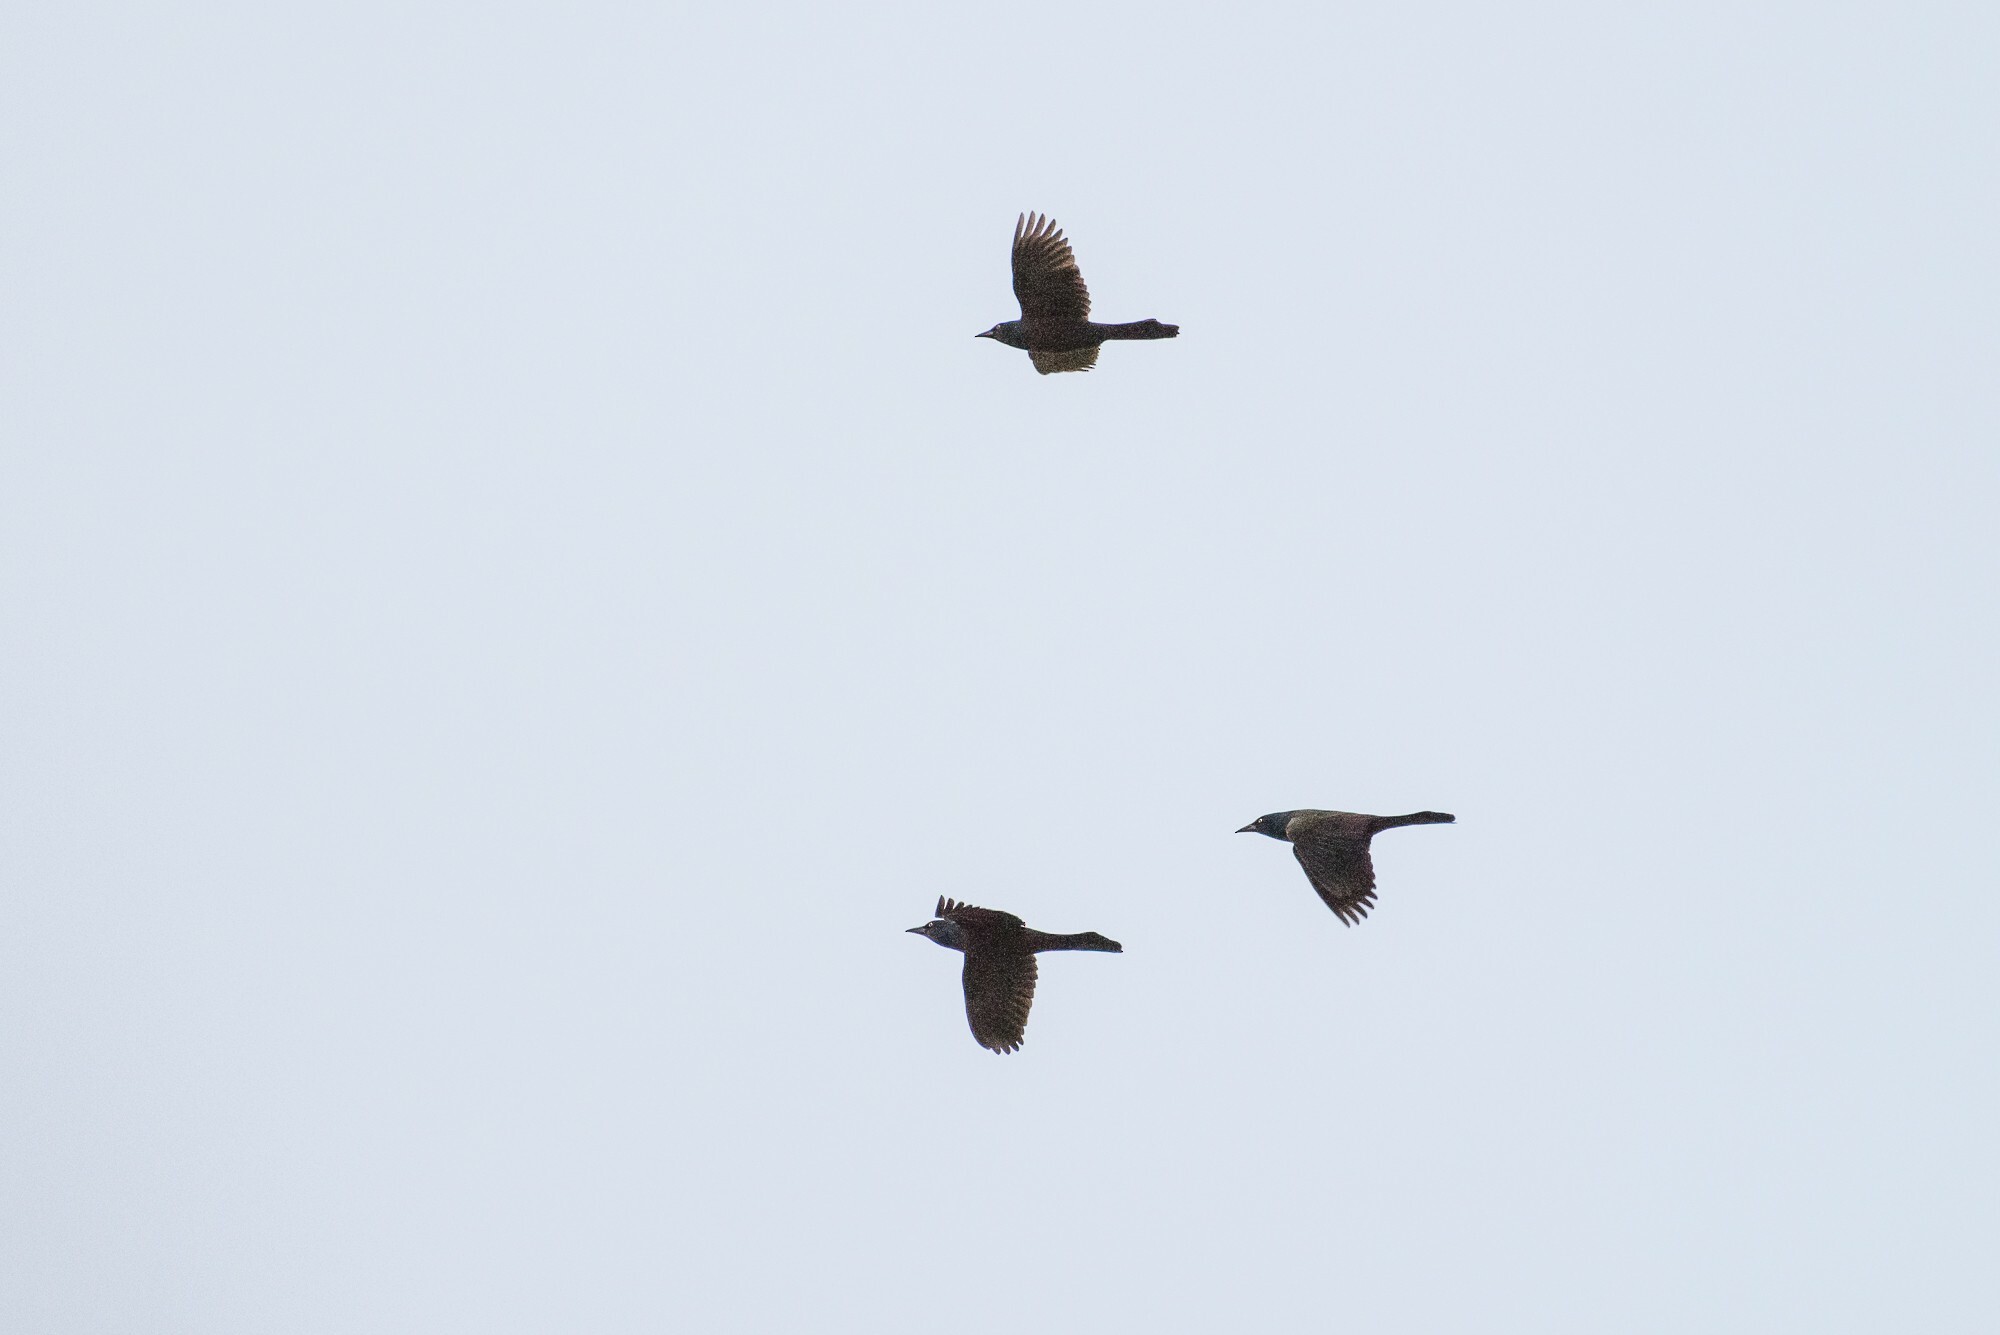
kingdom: Animalia
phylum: Chordata
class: Aves
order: Passeriformes
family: Icteridae
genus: Quiscalus
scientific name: Quiscalus quiscula
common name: Common grackle
